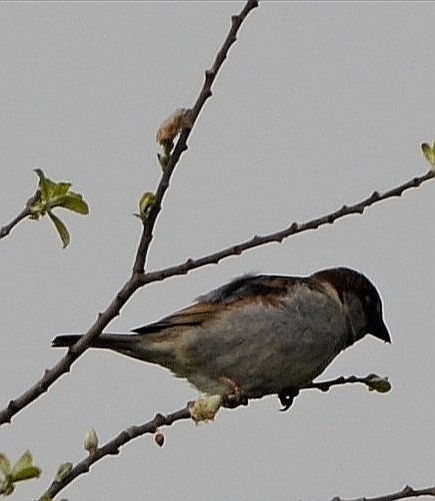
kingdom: Animalia
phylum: Chordata
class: Aves
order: Passeriformes
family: Passeridae
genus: Passer
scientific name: Passer domesticus
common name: House sparrow
